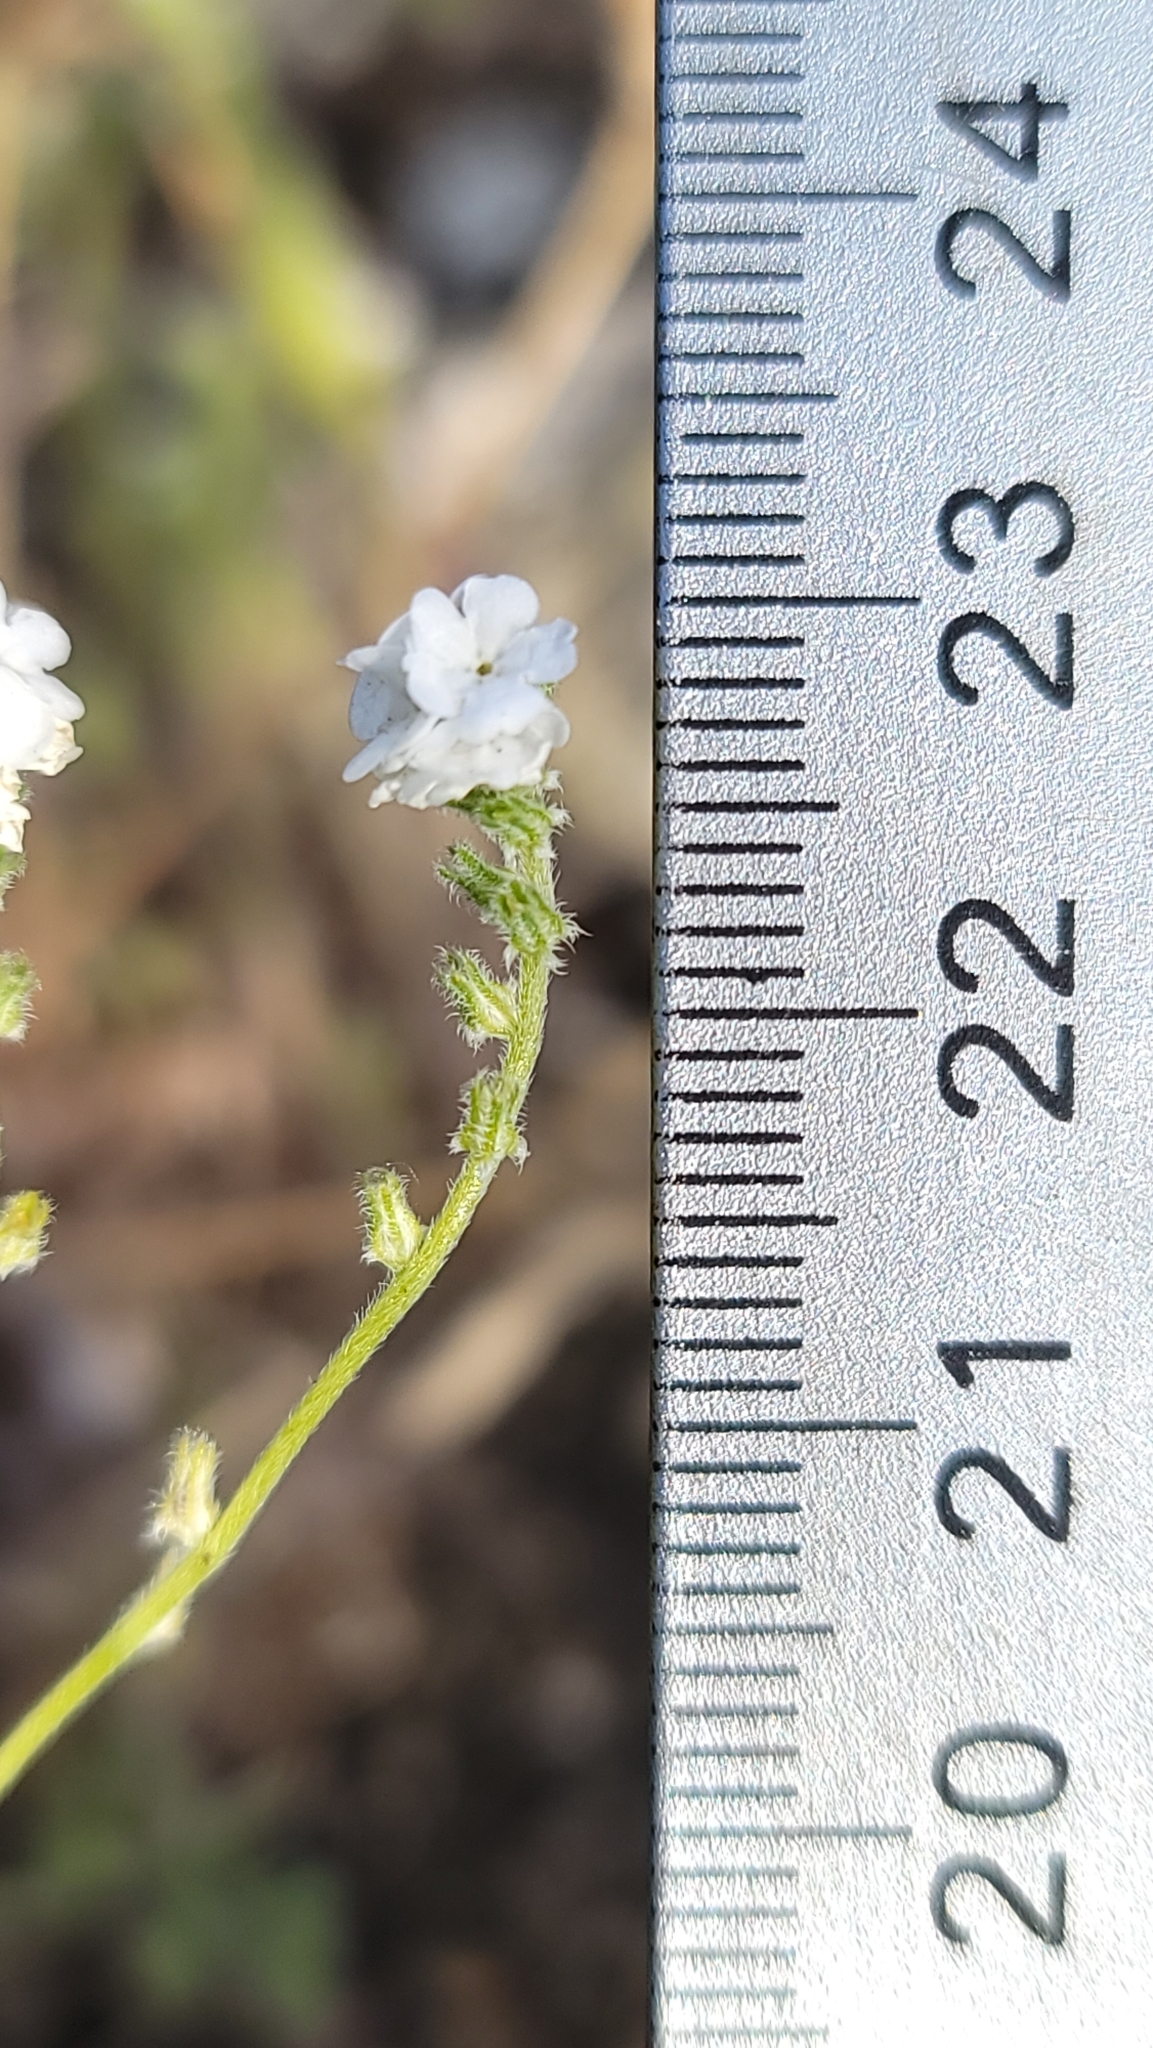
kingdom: Plantae
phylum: Tracheophyta
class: Magnoliopsida
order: Boraginales
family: Boraginaceae
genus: Cryptantha
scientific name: Cryptantha flaccida
